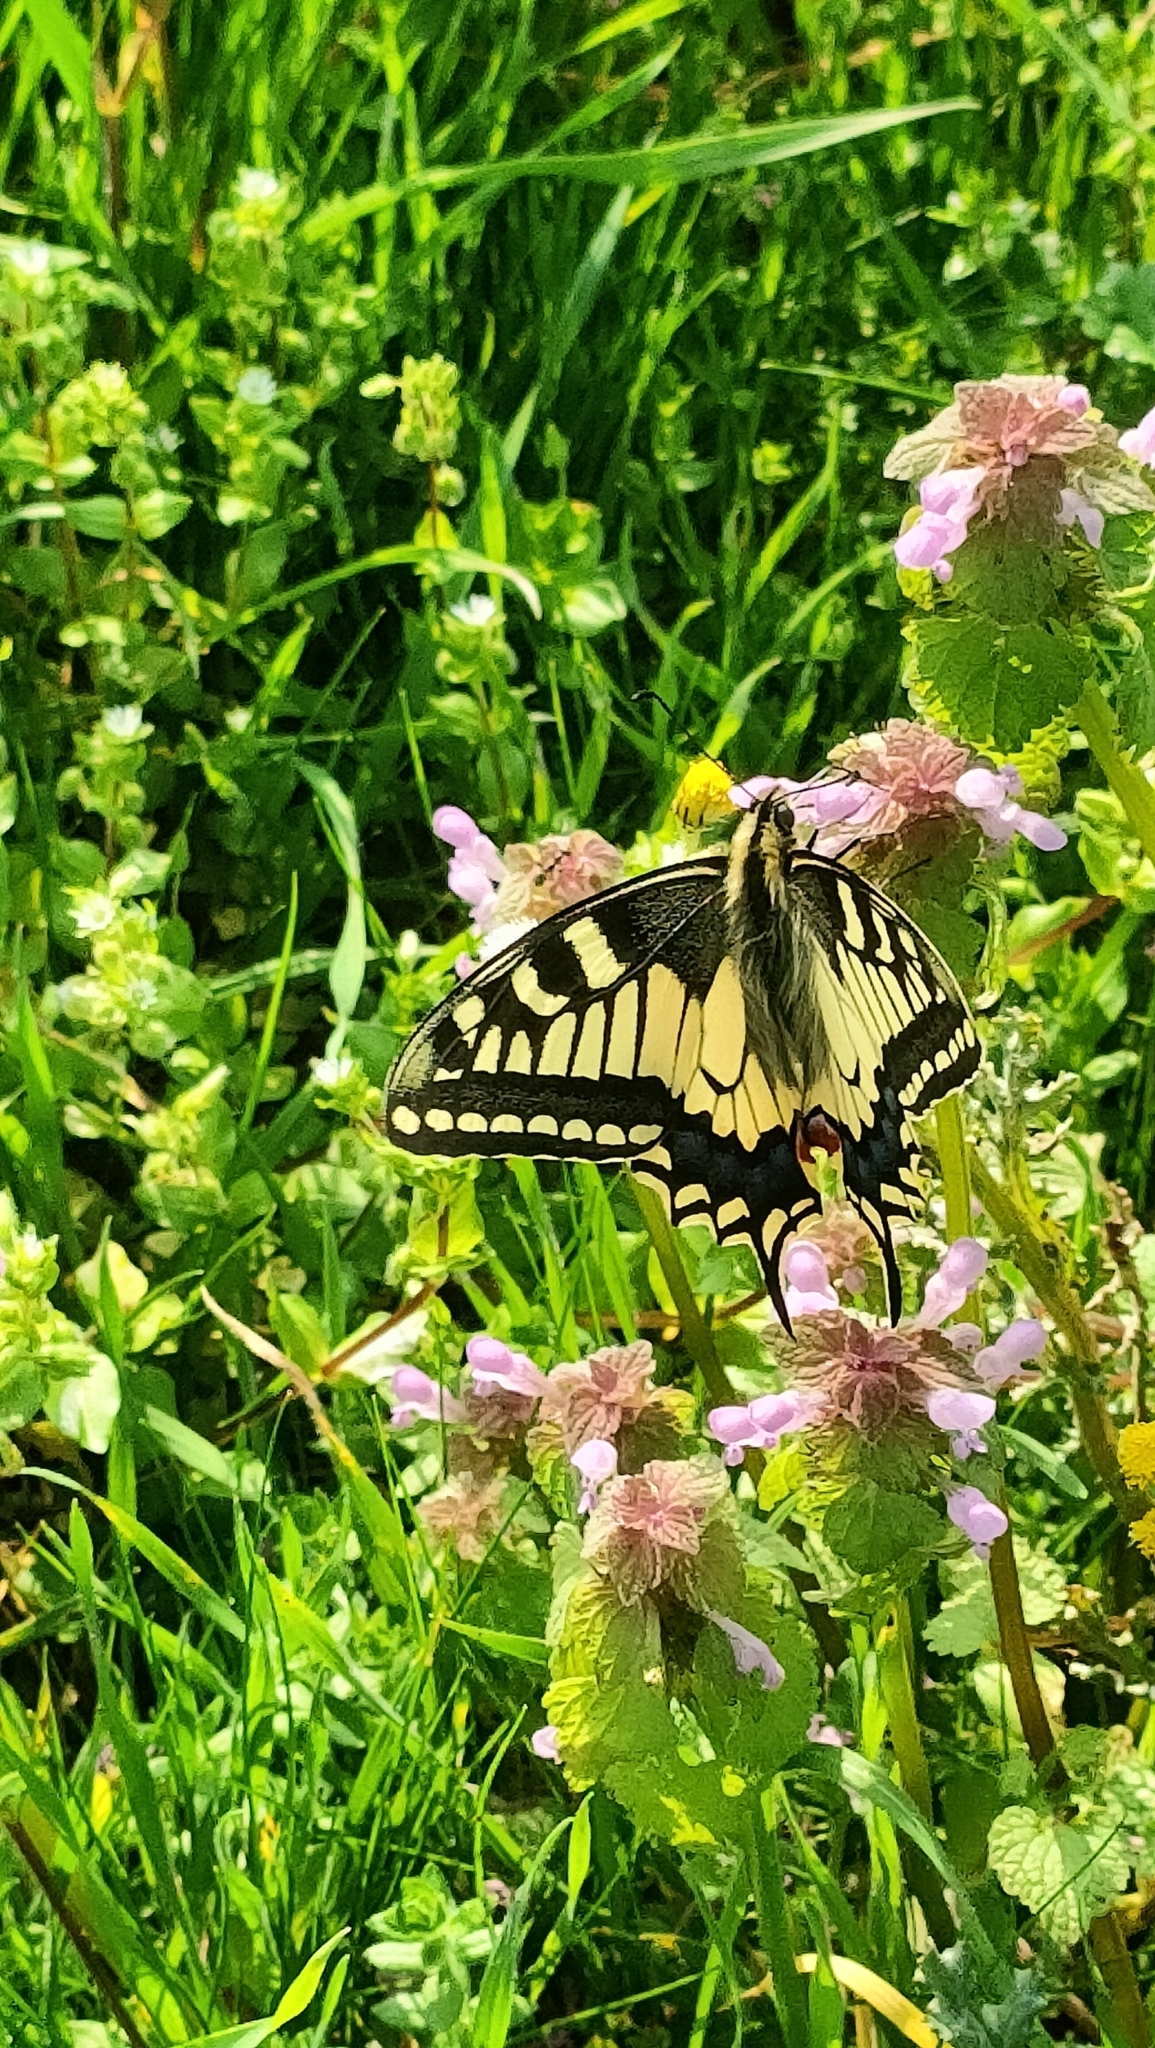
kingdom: Animalia
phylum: Arthropoda
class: Insecta
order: Lepidoptera
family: Papilionidae
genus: Papilio
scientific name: Papilio machaon
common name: Swallowtail
